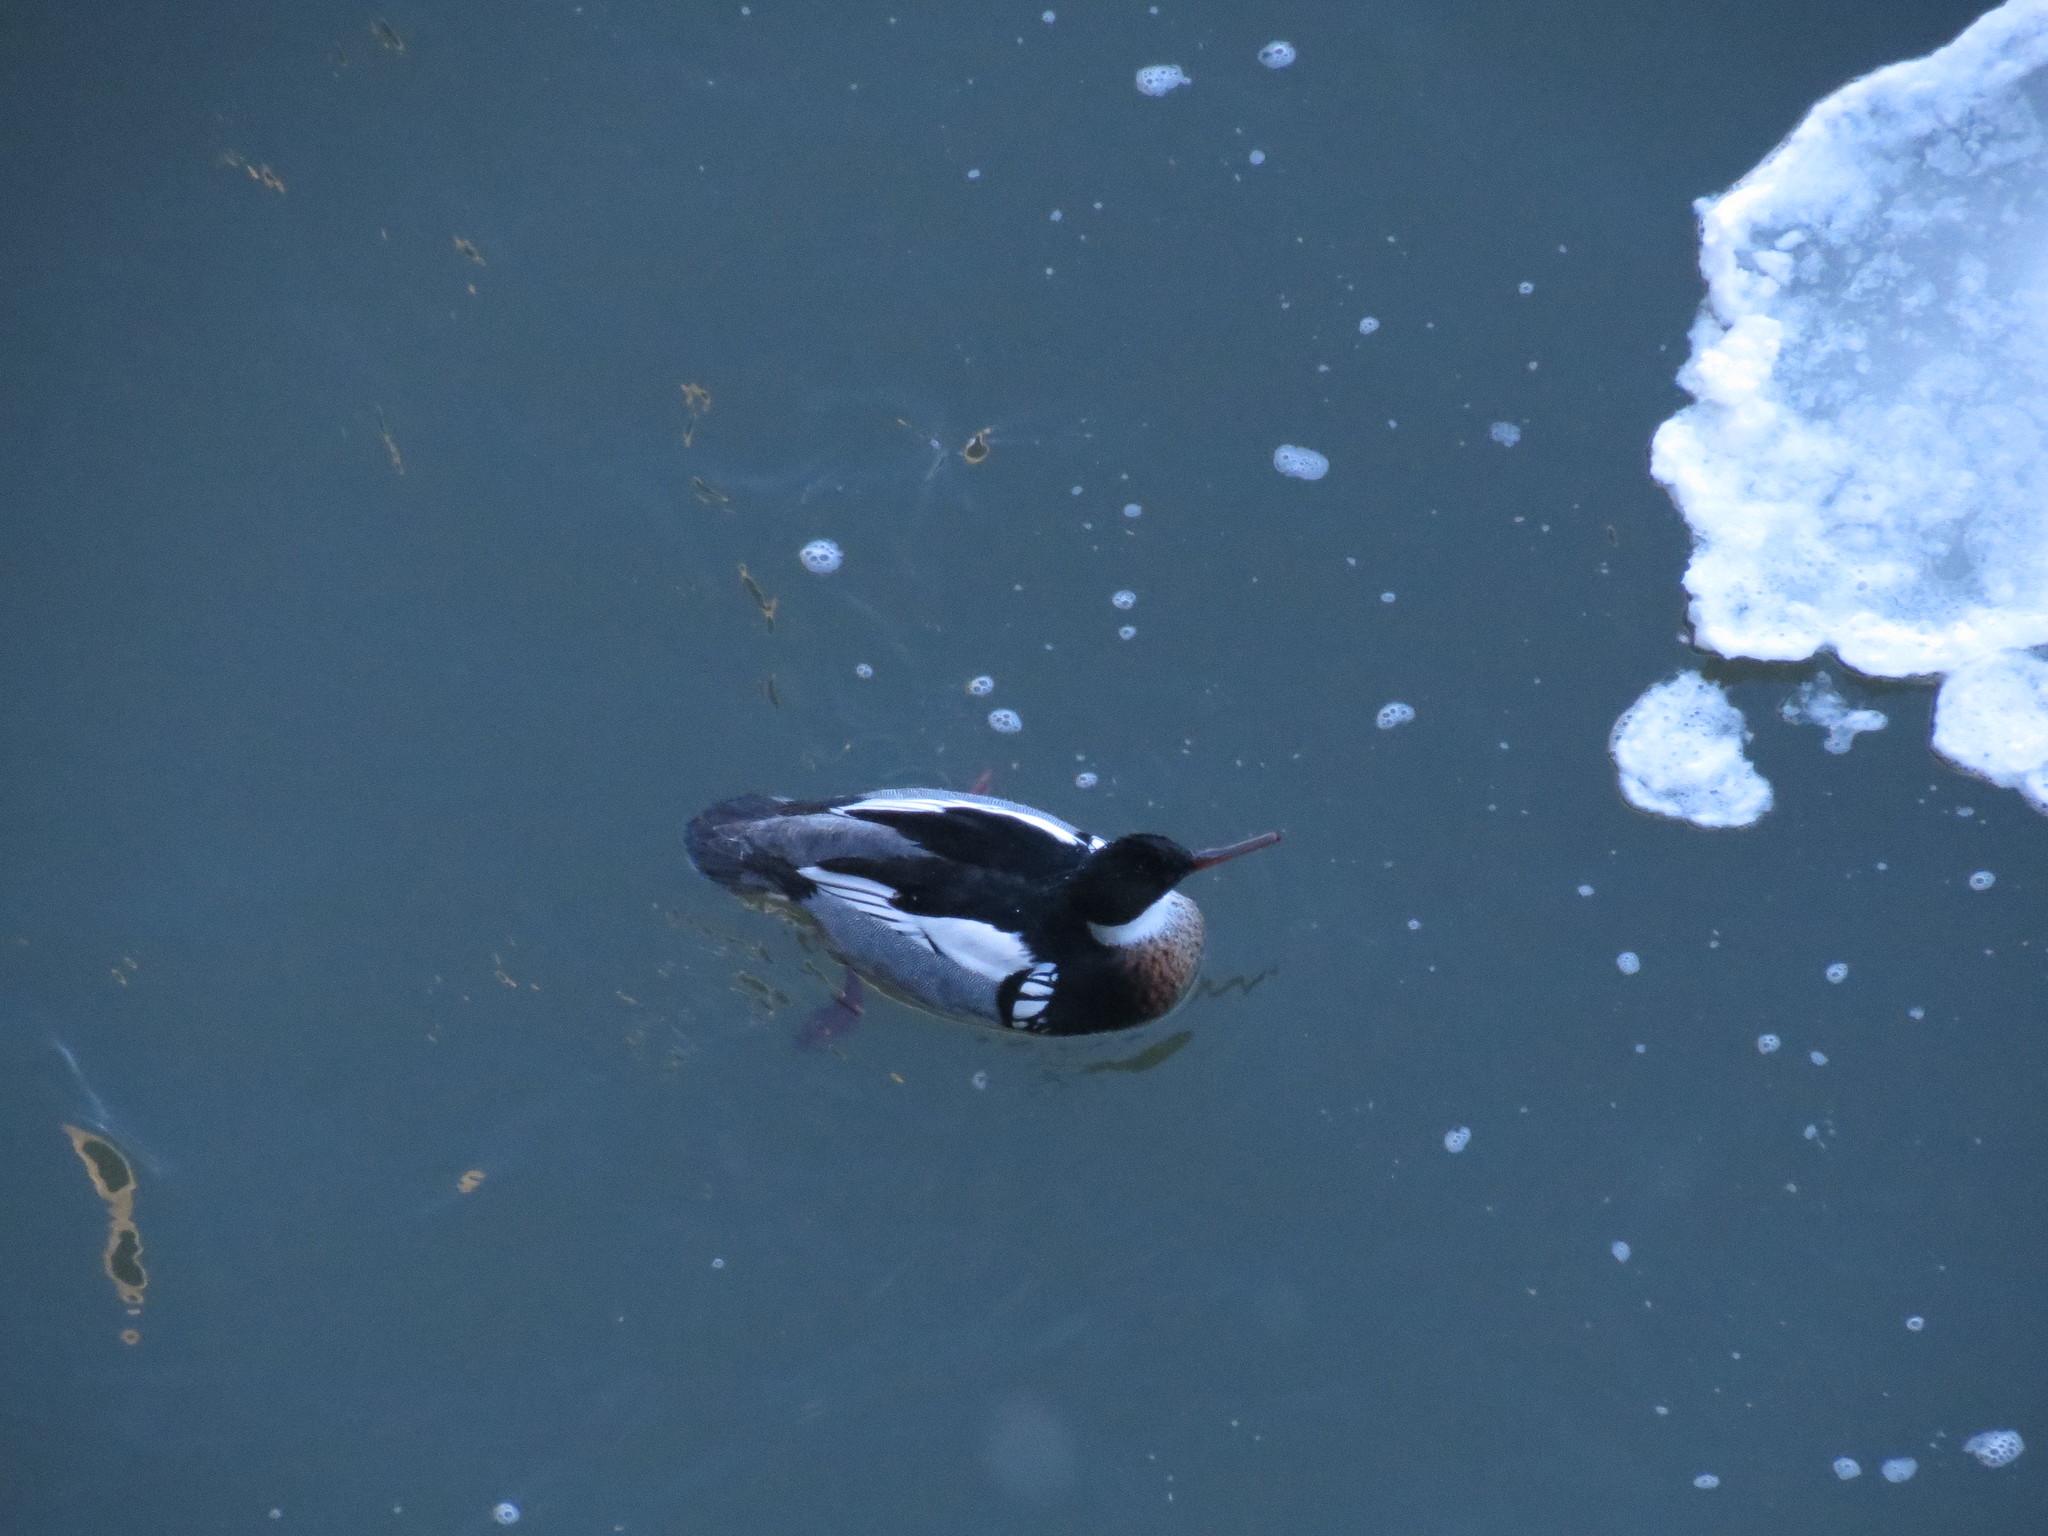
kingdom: Animalia
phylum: Chordata
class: Aves
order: Anseriformes
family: Anatidae
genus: Mergus
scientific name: Mergus serrator
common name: Red-breasted merganser
